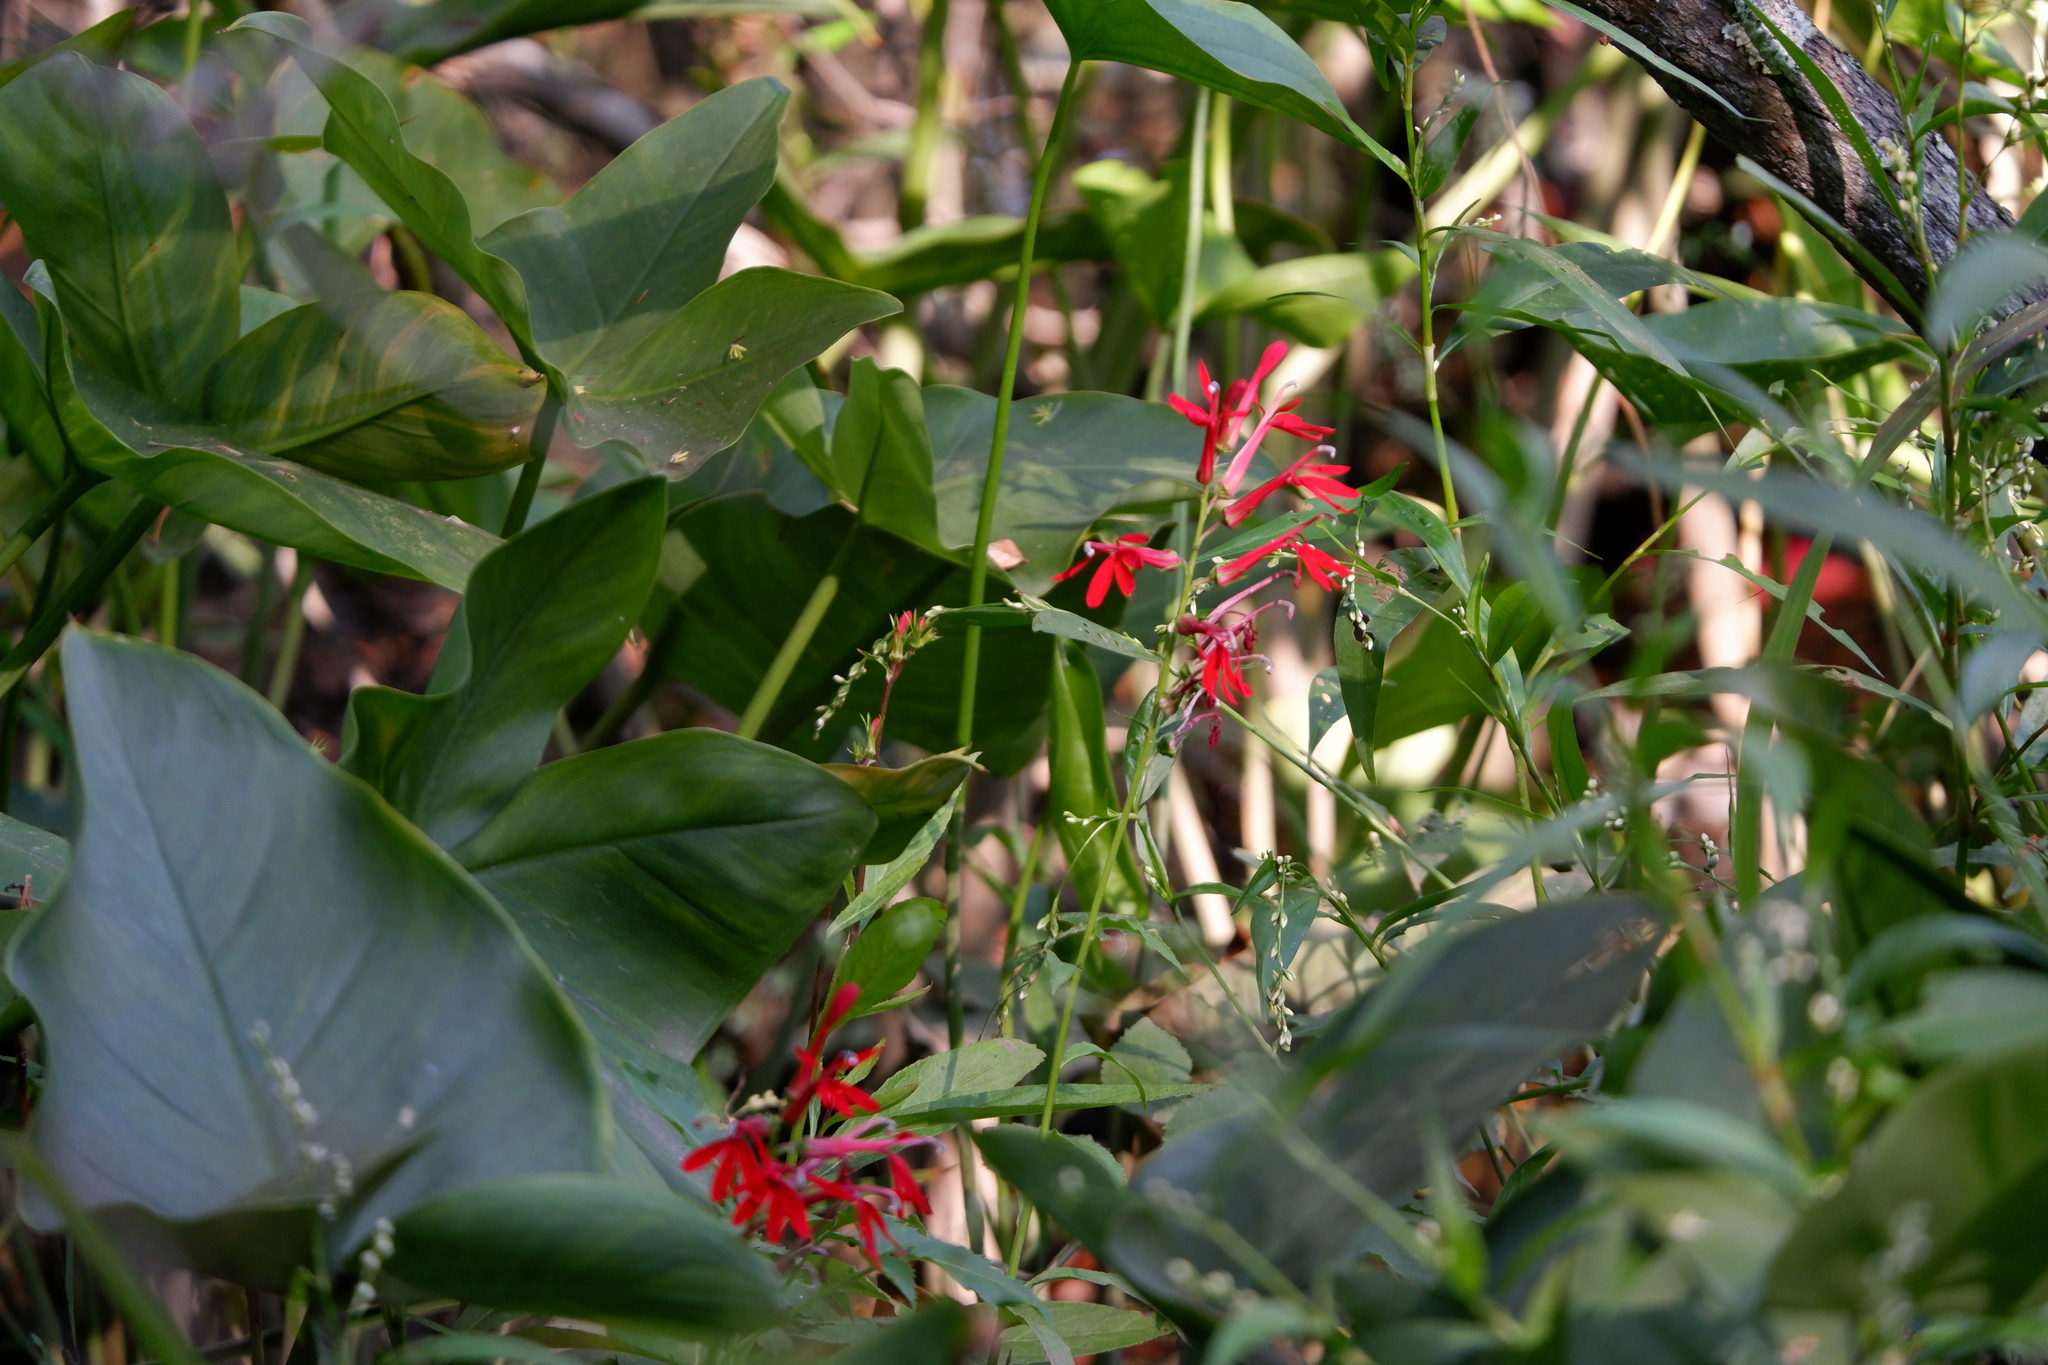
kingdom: Plantae
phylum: Tracheophyta
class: Magnoliopsida
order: Asterales
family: Campanulaceae
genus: Lobelia
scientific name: Lobelia cardinalis
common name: Cardinal flower
